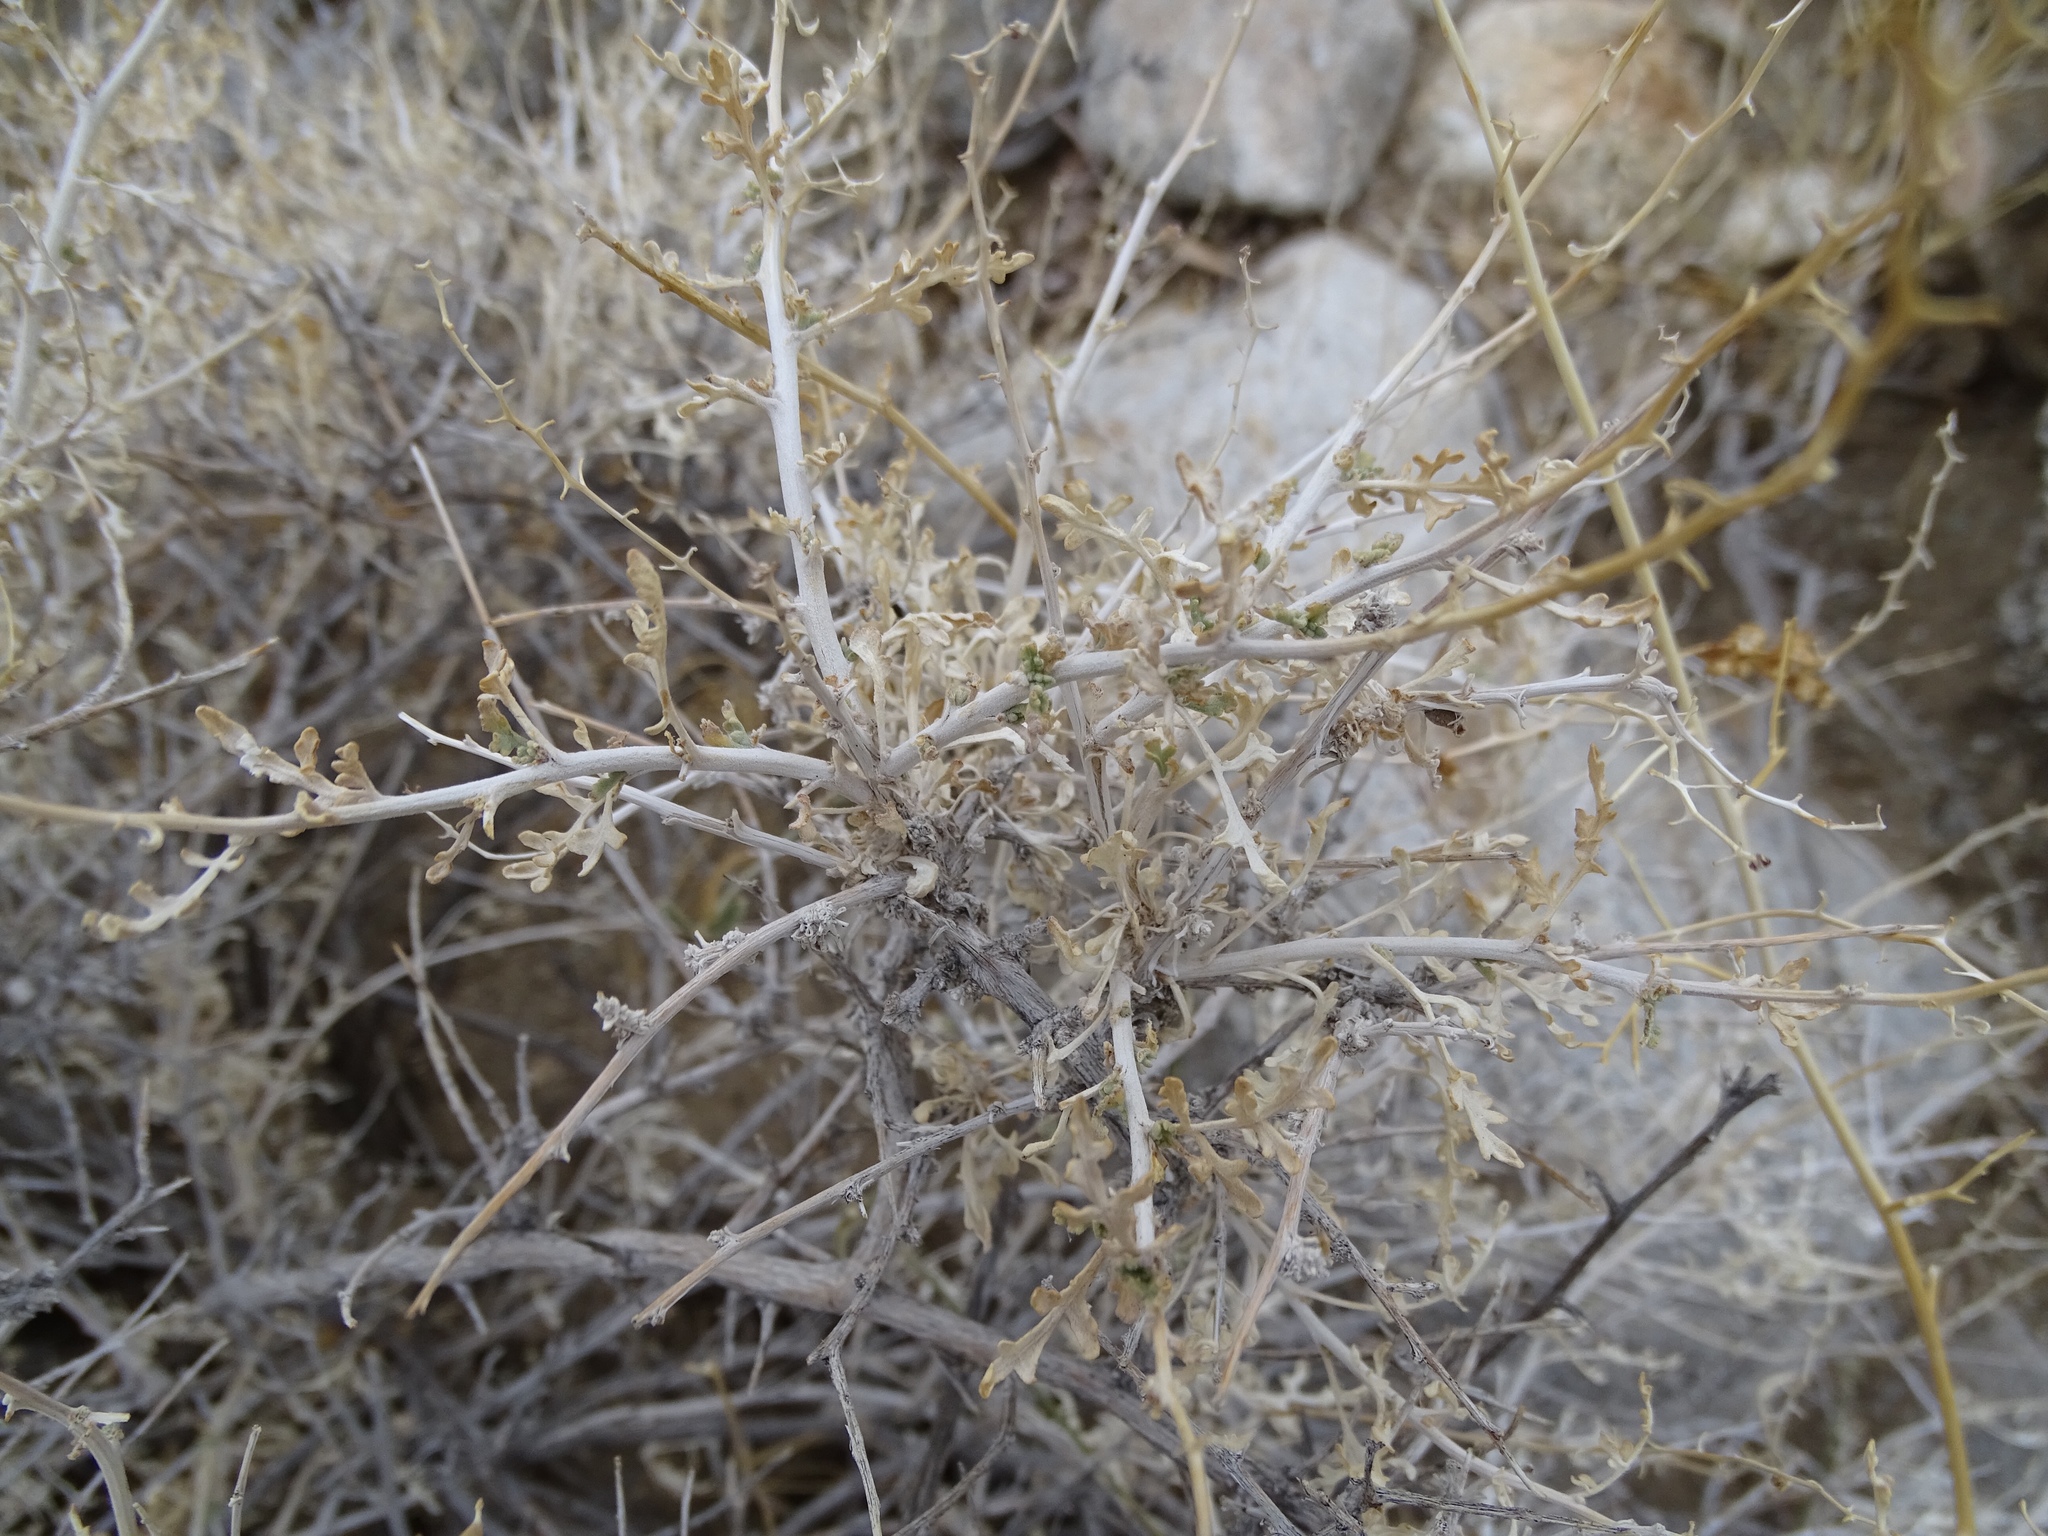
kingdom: Plantae
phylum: Tracheophyta
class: Magnoliopsida
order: Asterales
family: Asteraceae
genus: Ambrosia
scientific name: Ambrosia dumosa
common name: Bur-sage
